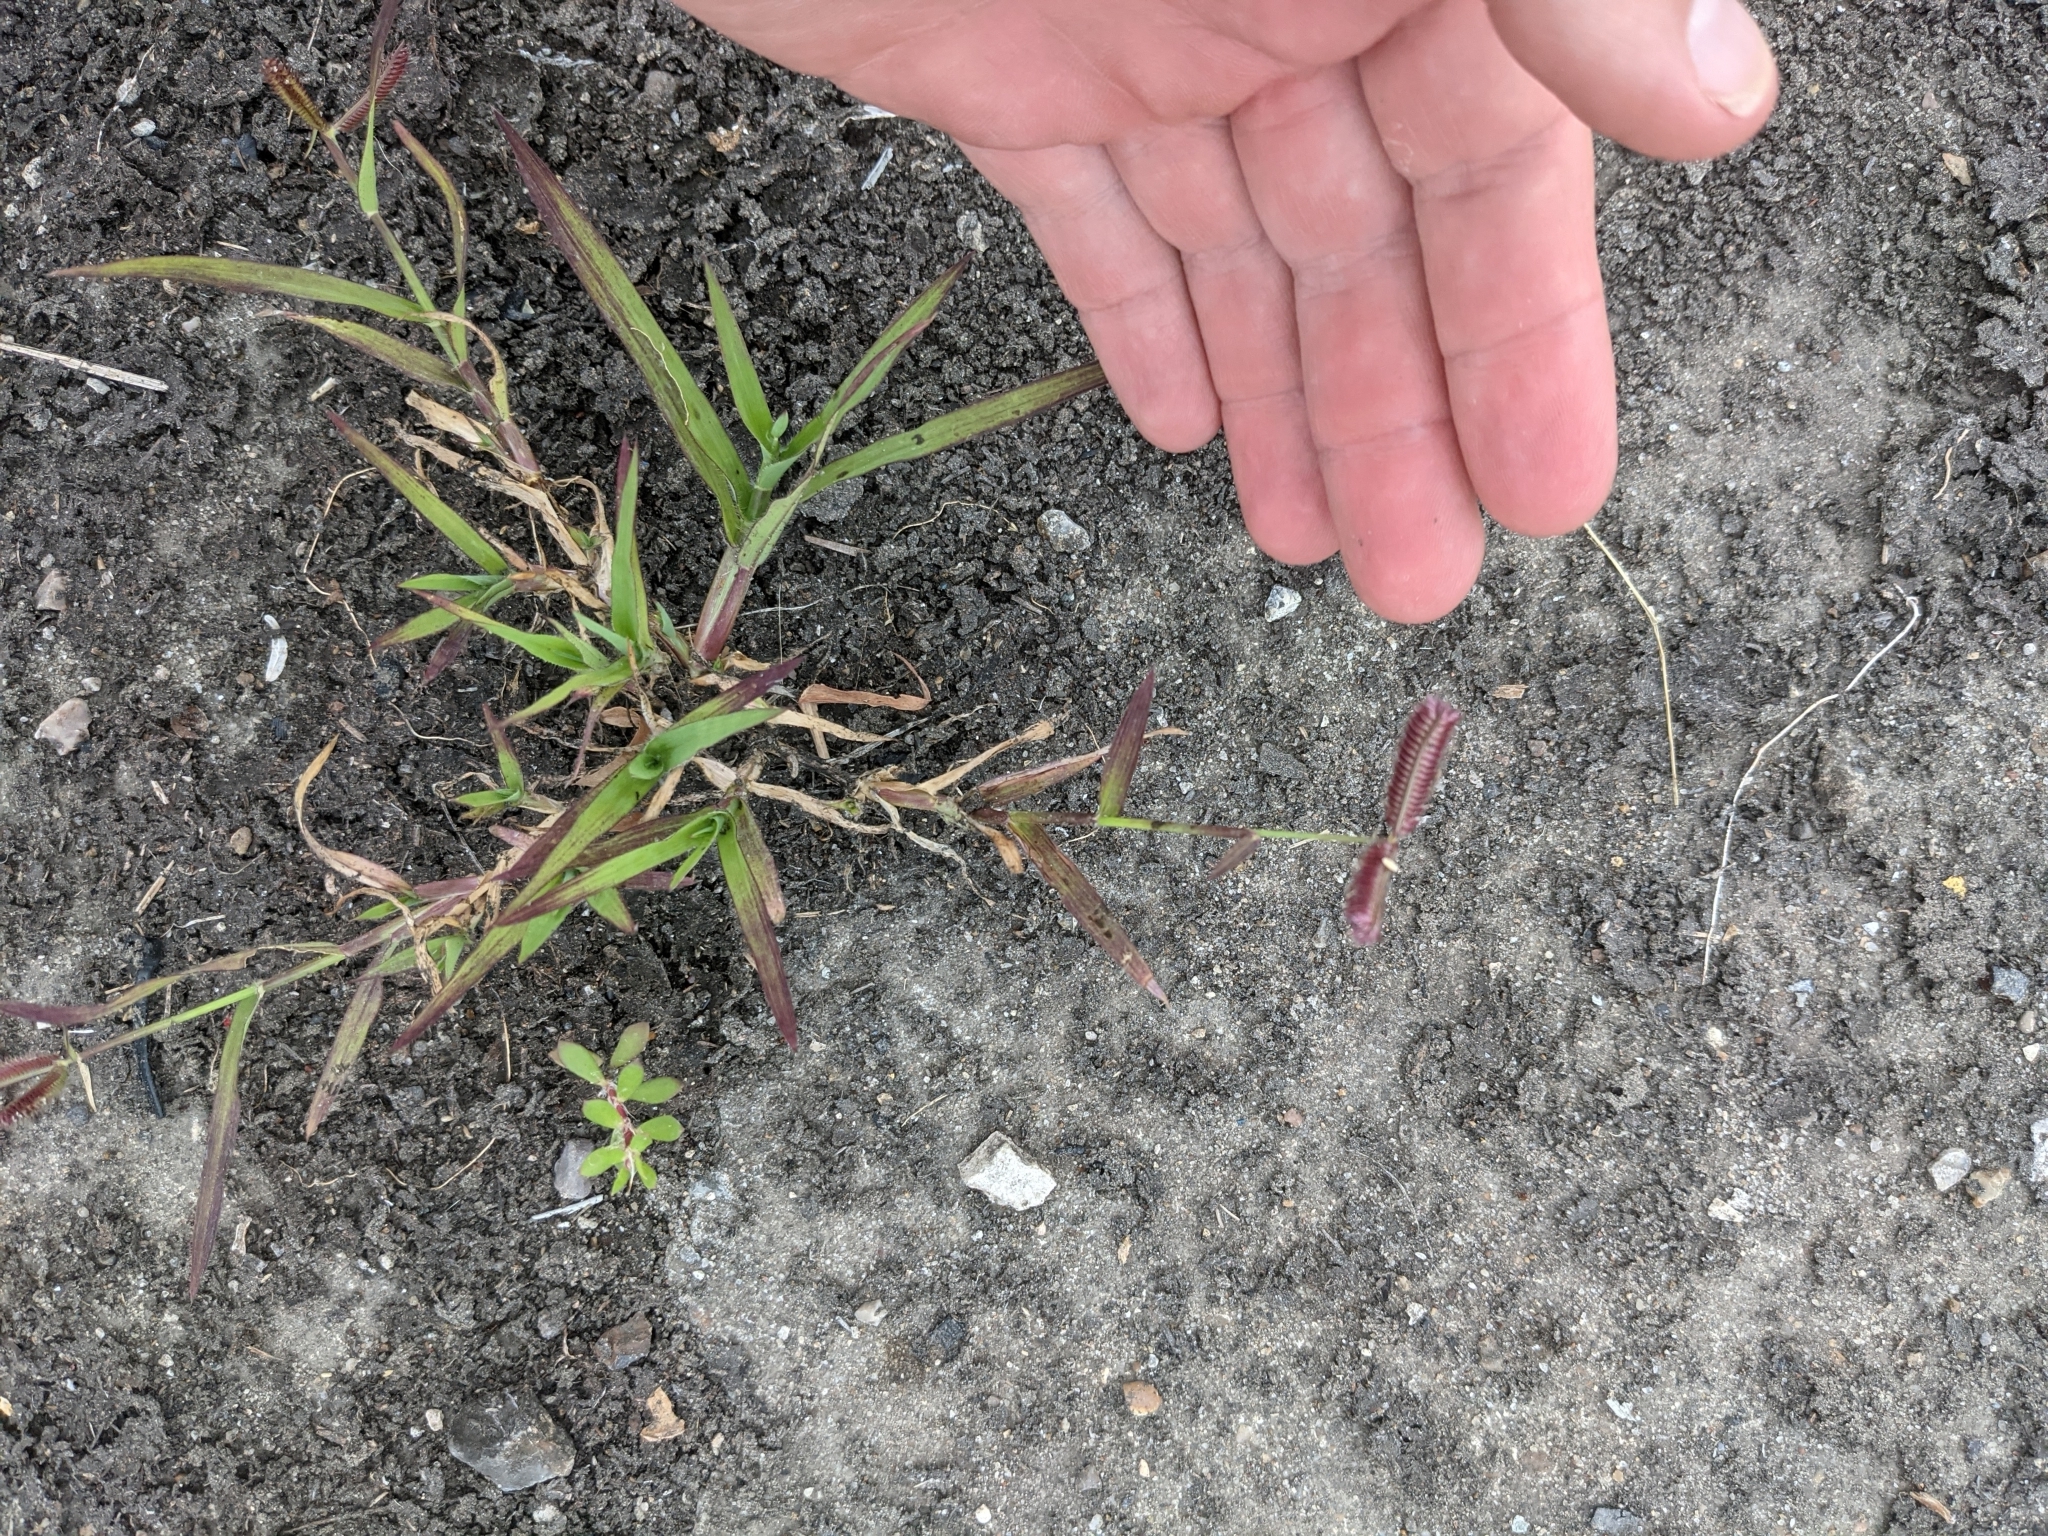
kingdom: Plantae
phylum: Tracheophyta
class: Liliopsida
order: Poales
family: Poaceae
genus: Dactyloctenium
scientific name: Dactyloctenium aegyptium
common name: Egyptian grass
